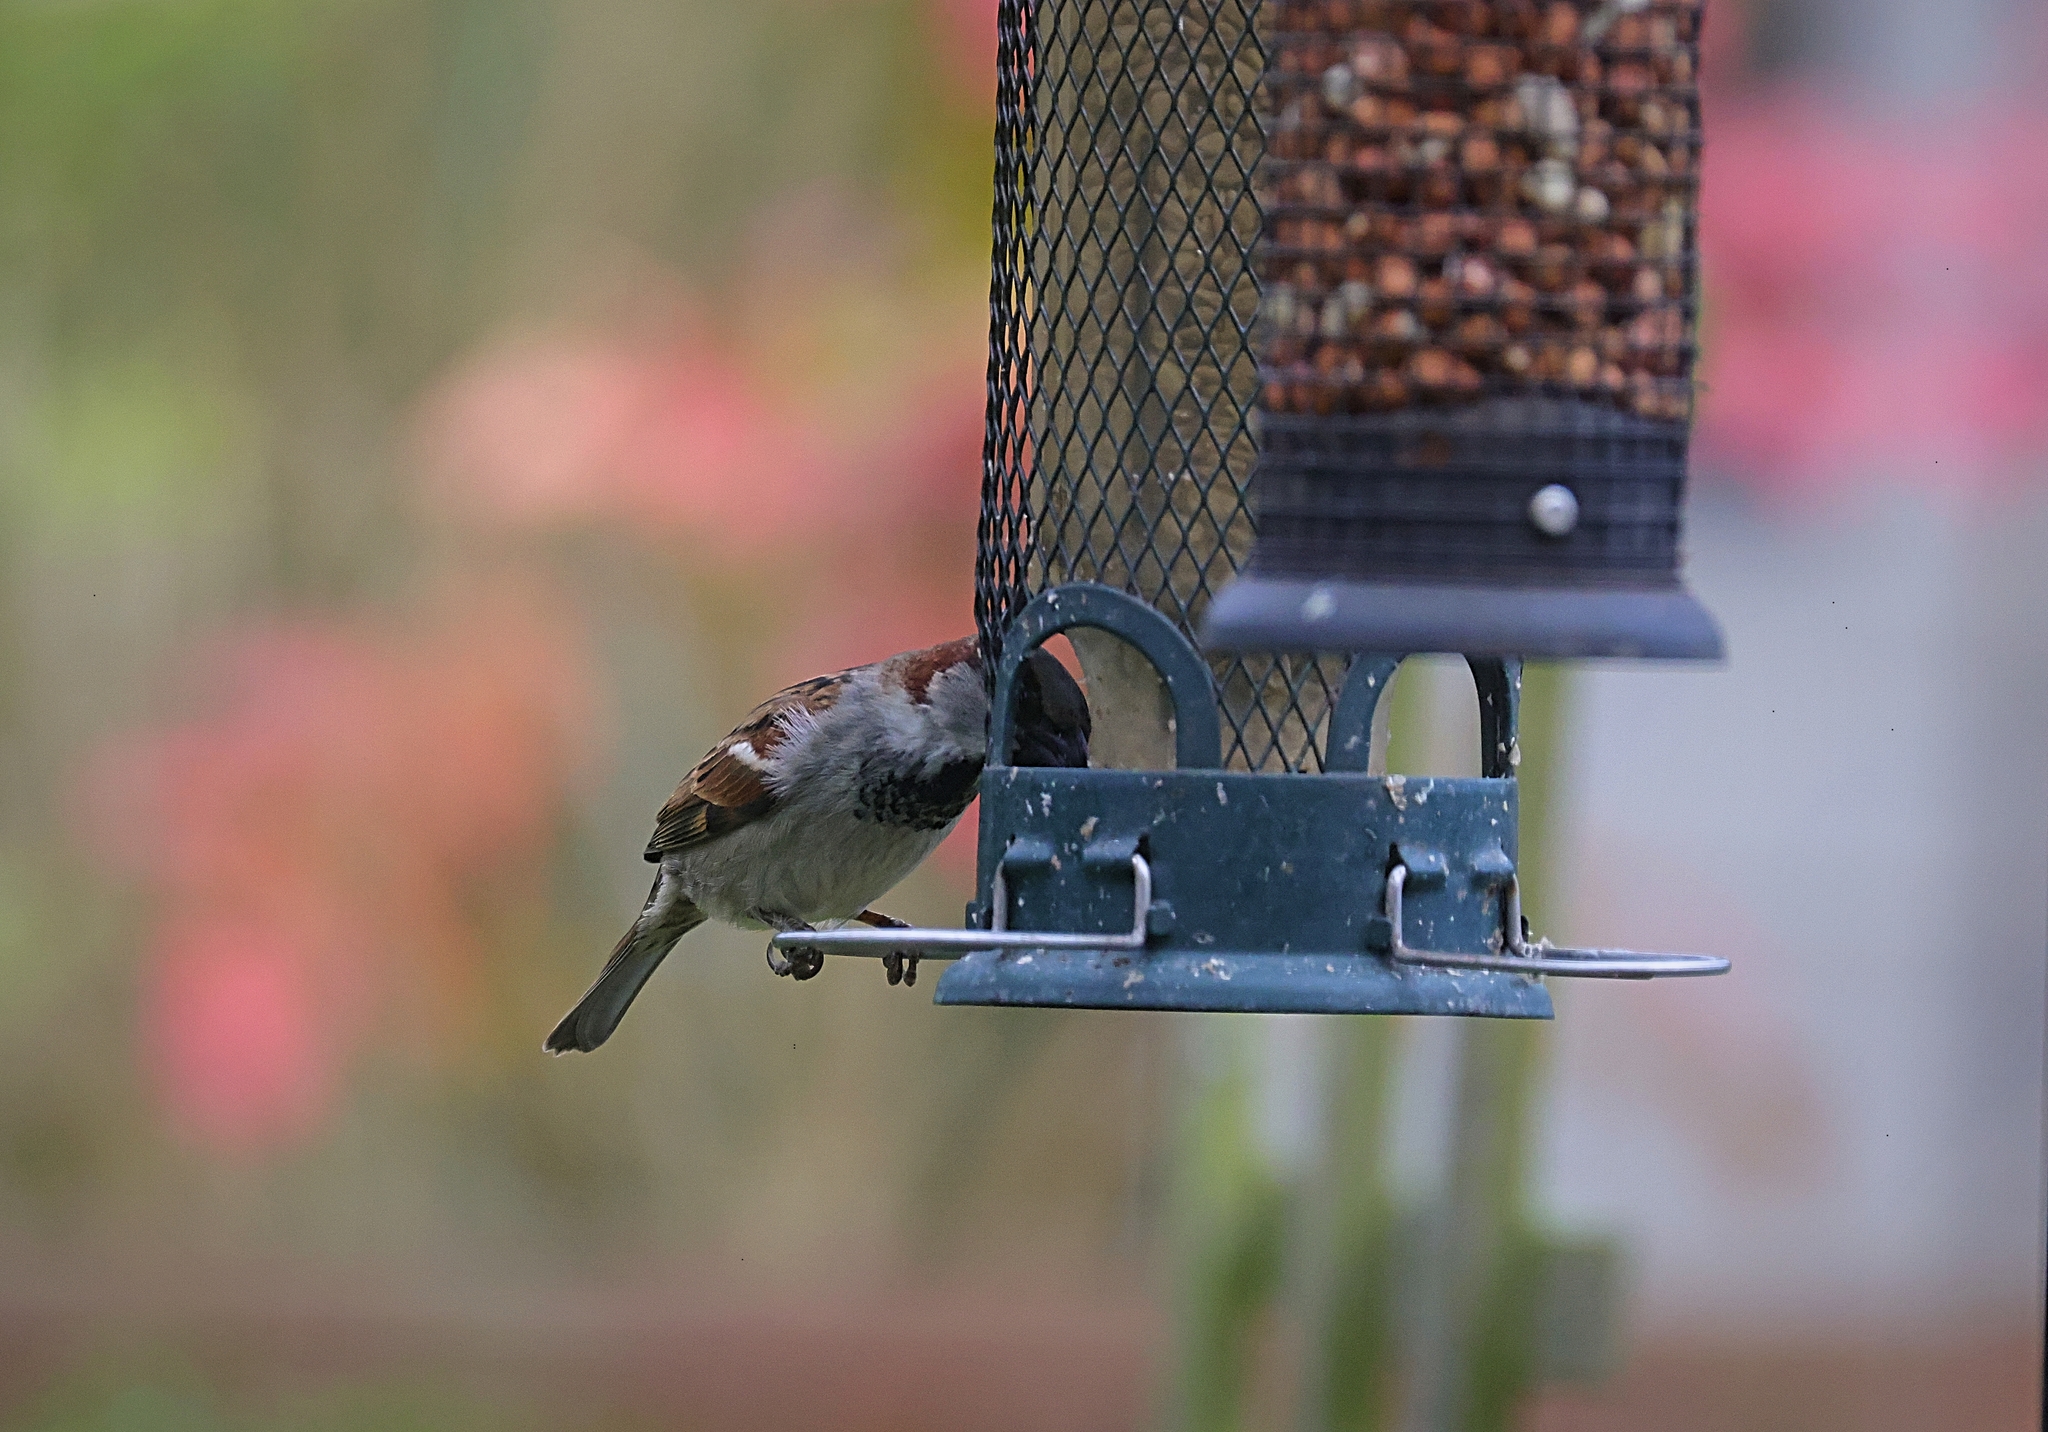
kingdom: Animalia
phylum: Chordata
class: Aves
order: Passeriformes
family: Passeridae
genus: Passer
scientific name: Passer domesticus
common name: House sparrow
